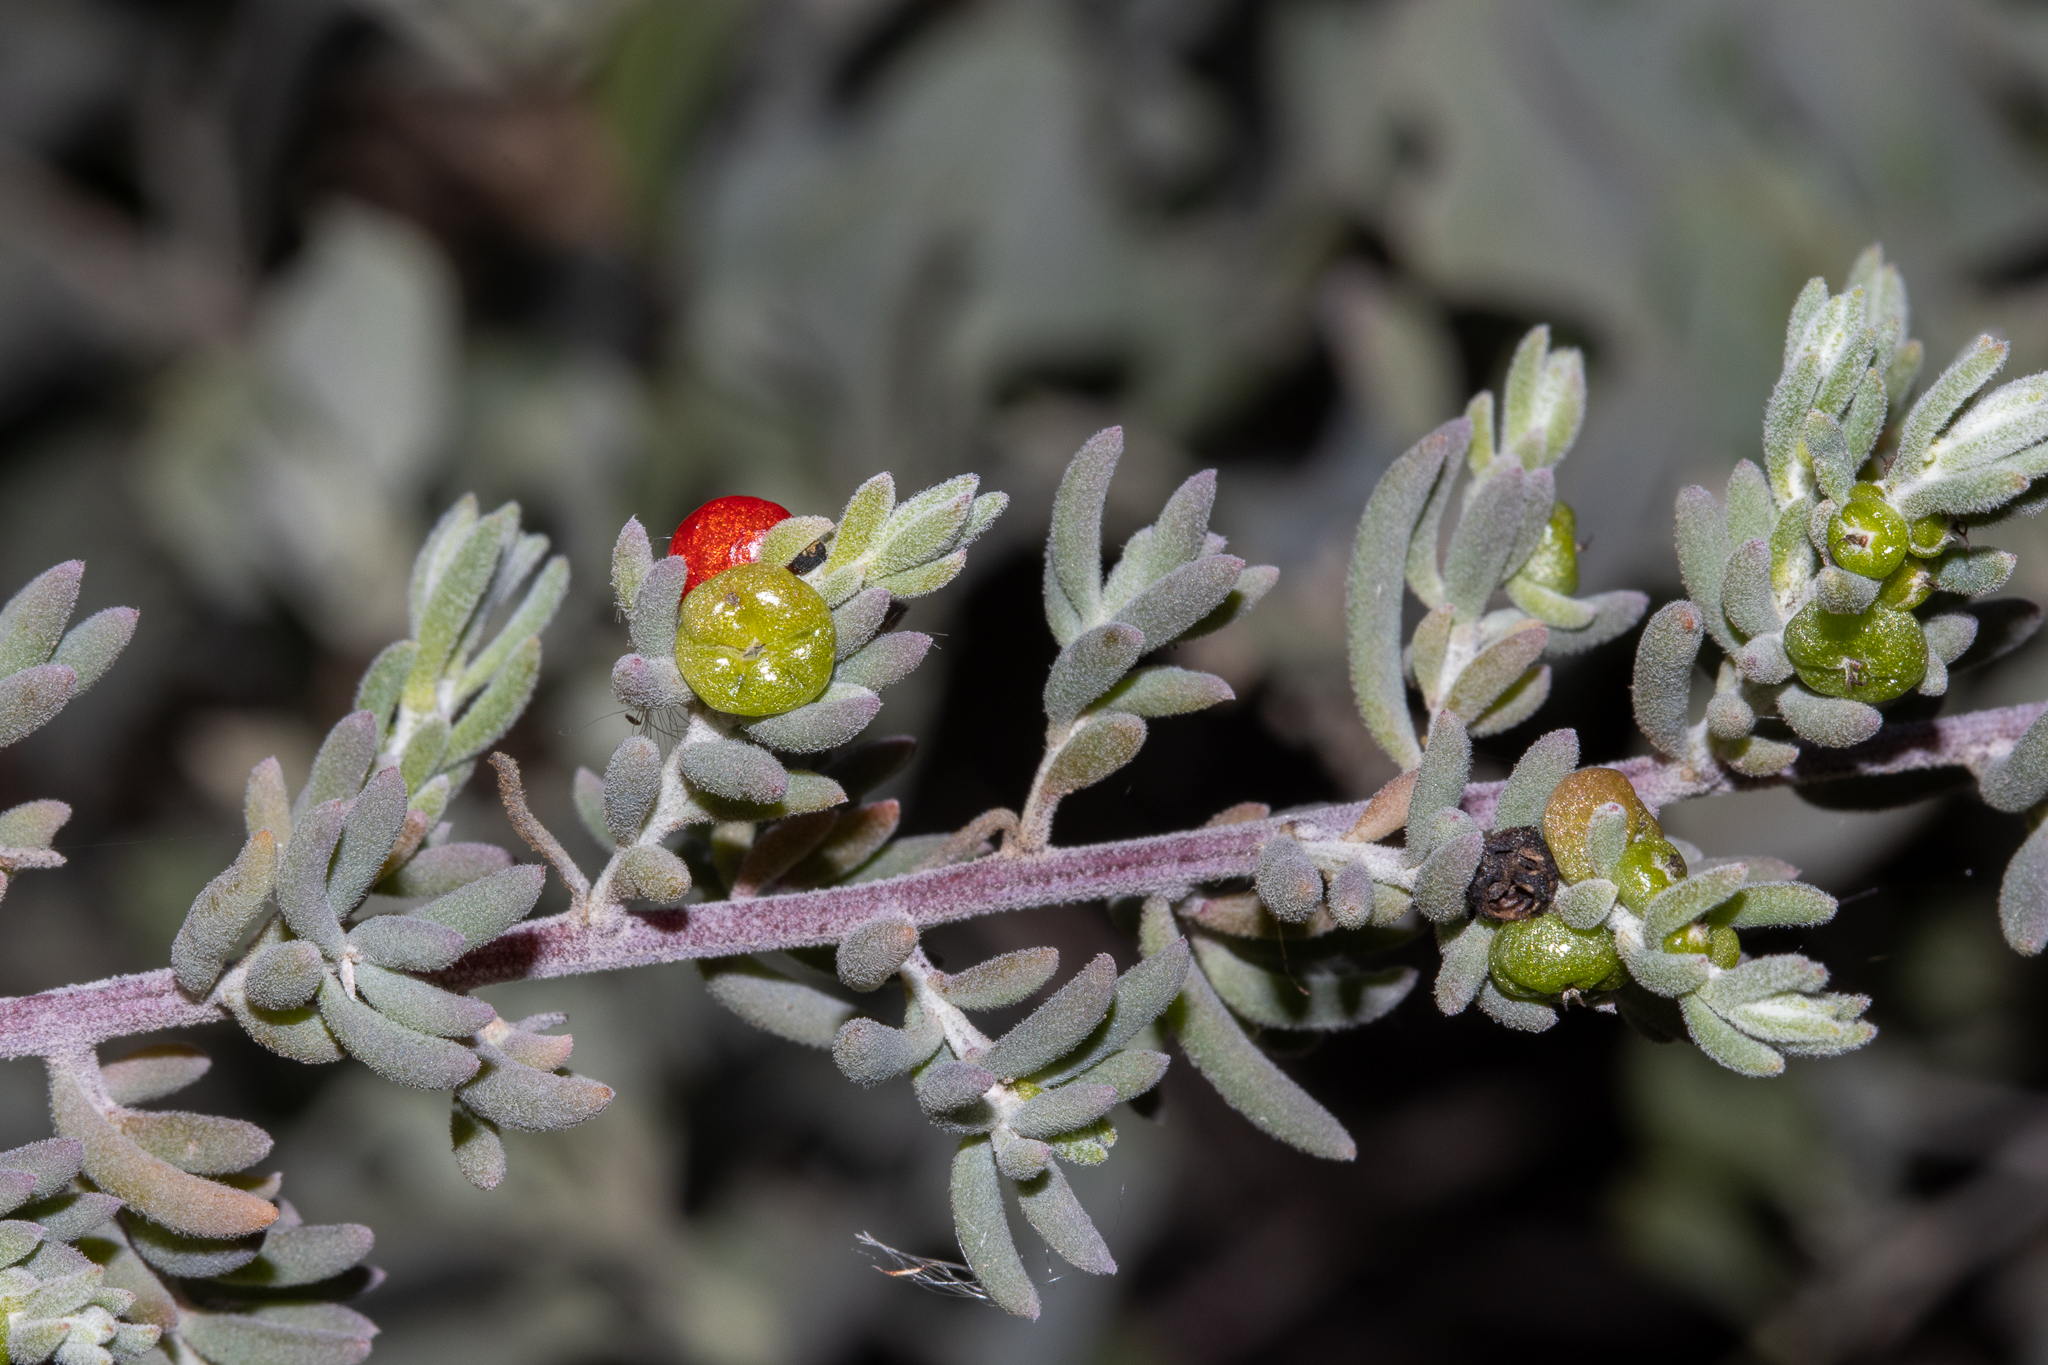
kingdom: Plantae
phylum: Tracheophyta
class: Magnoliopsida
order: Caryophyllales
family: Amaranthaceae
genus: Enchylaena
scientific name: Enchylaena tomentosa
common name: Ruby saltbush
